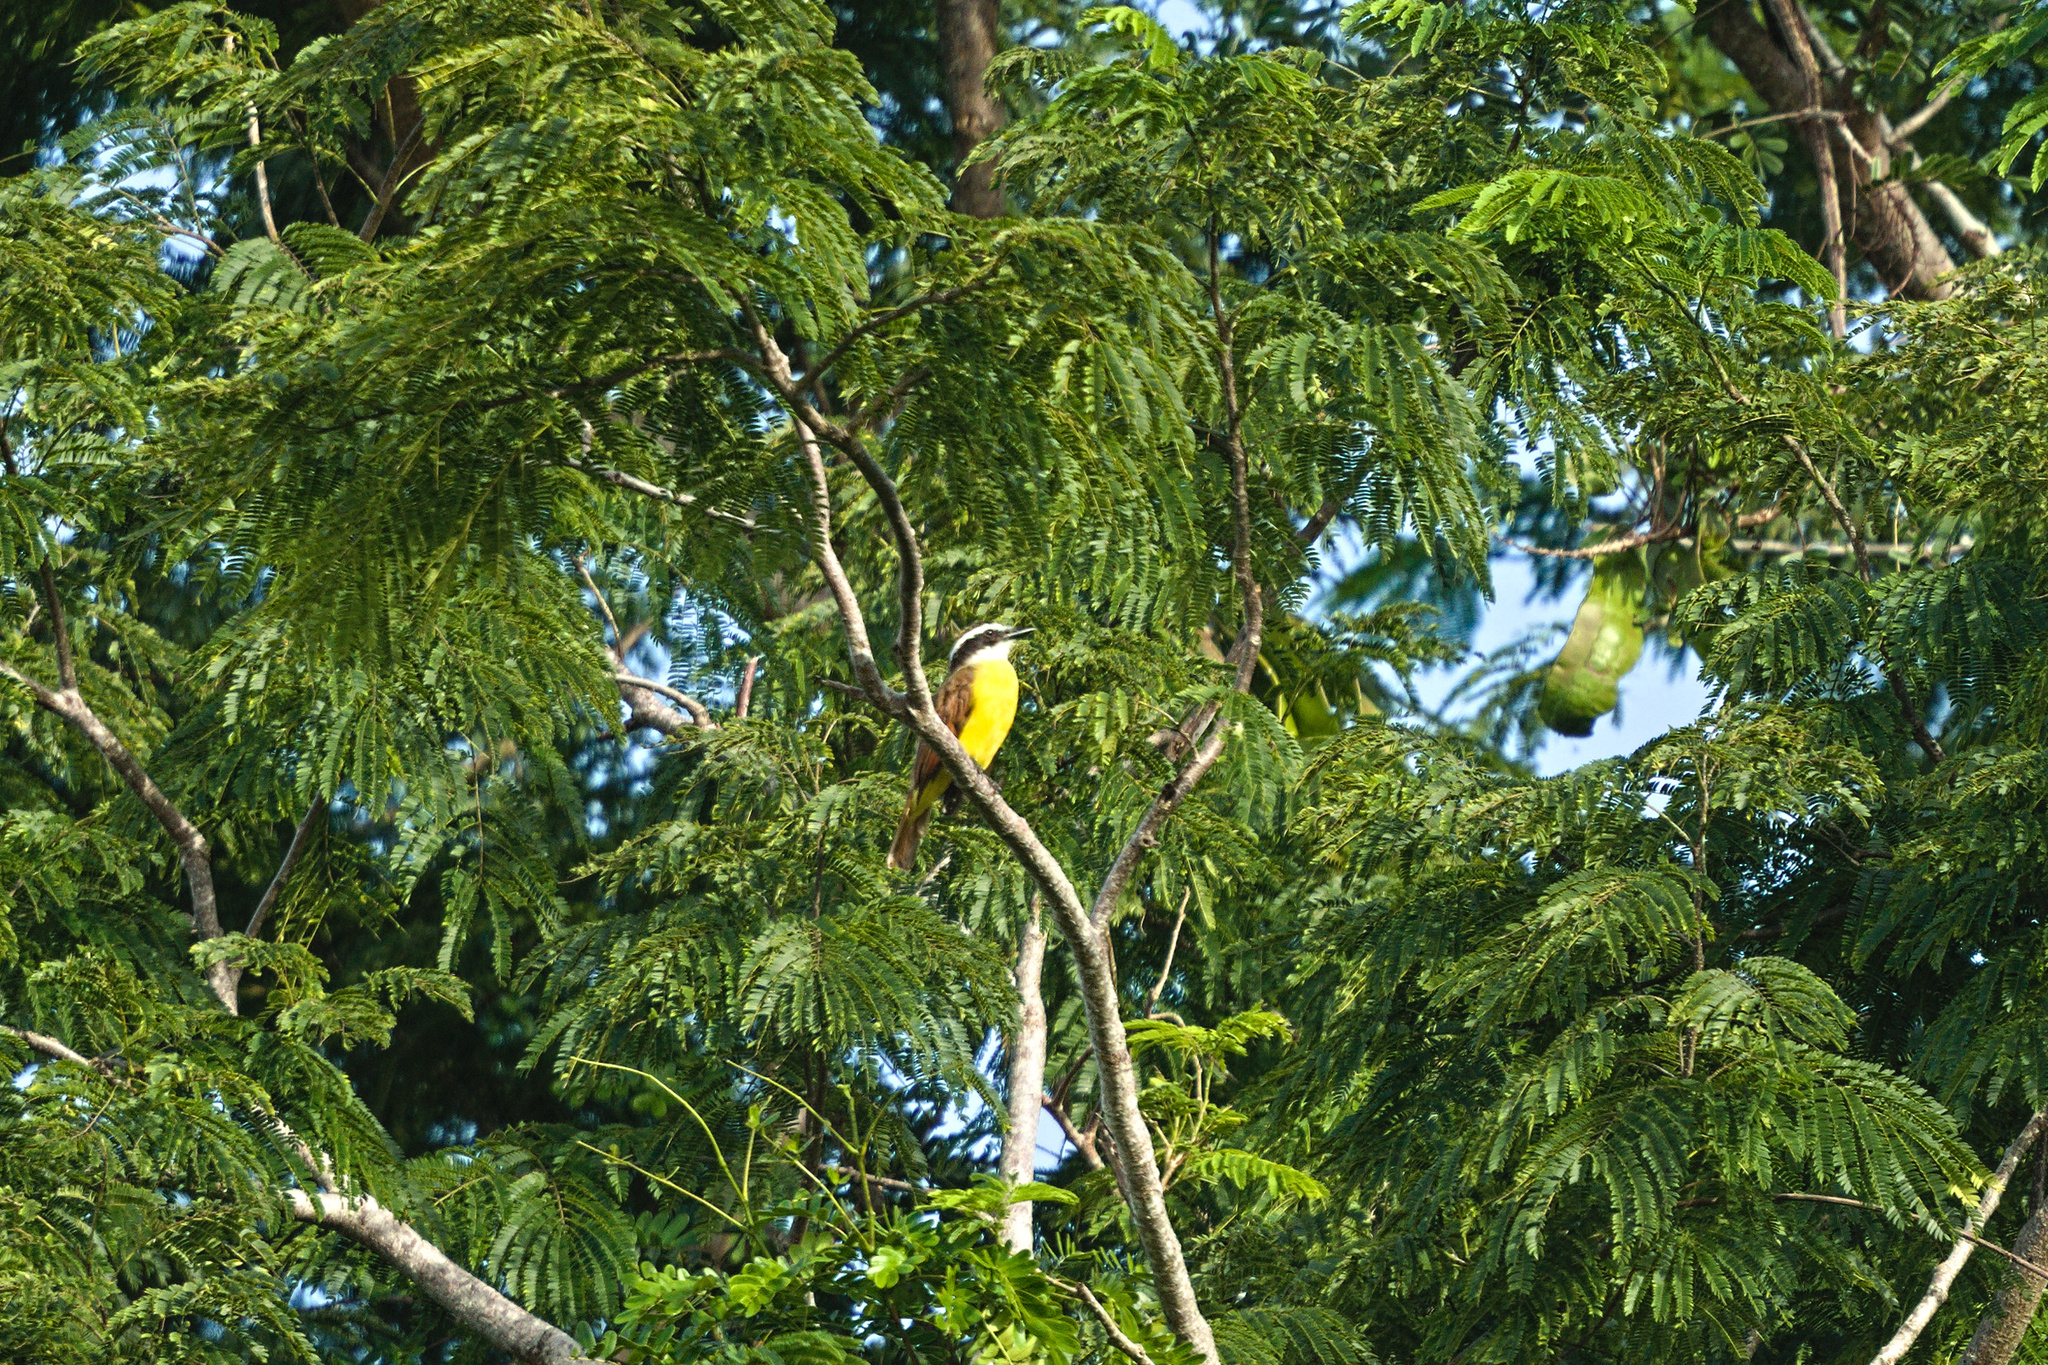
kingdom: Animalia
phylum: Chordata
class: Aves
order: Passeriformes
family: Tyrannidae
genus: Pitangus
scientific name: Pitangus sulphuratus
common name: Great kiskadee
